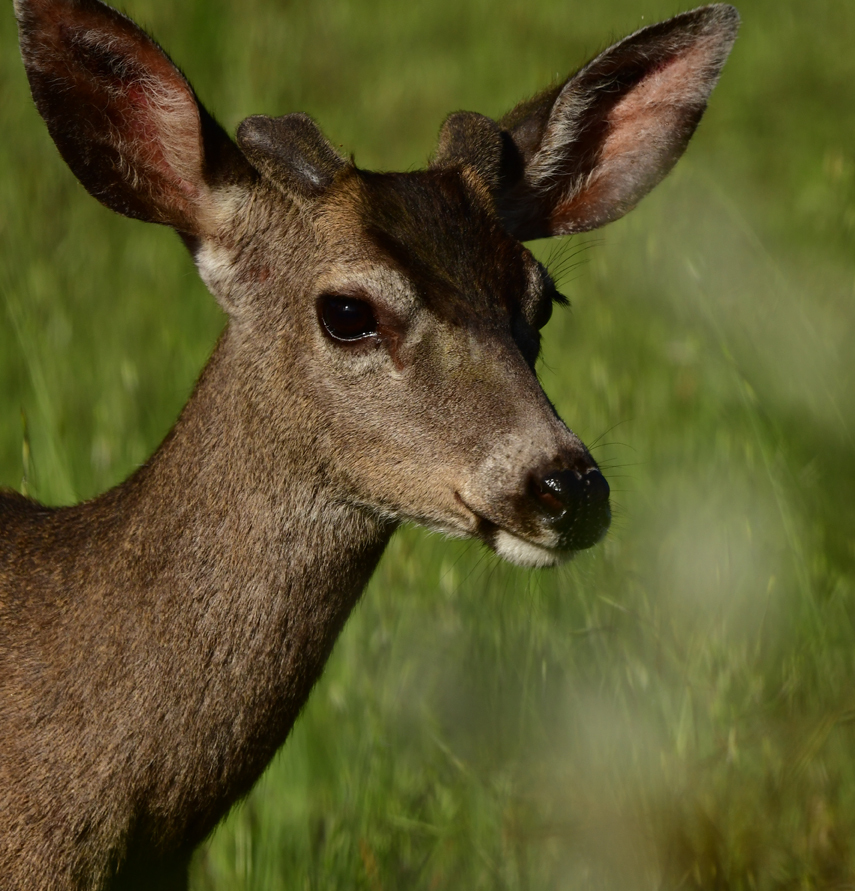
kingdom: Animalia
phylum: Chordata
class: Mammalia
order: Artiodactyla
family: Cervidae
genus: Odocoileus
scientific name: Odocoileus hemionus
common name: Mule deer
